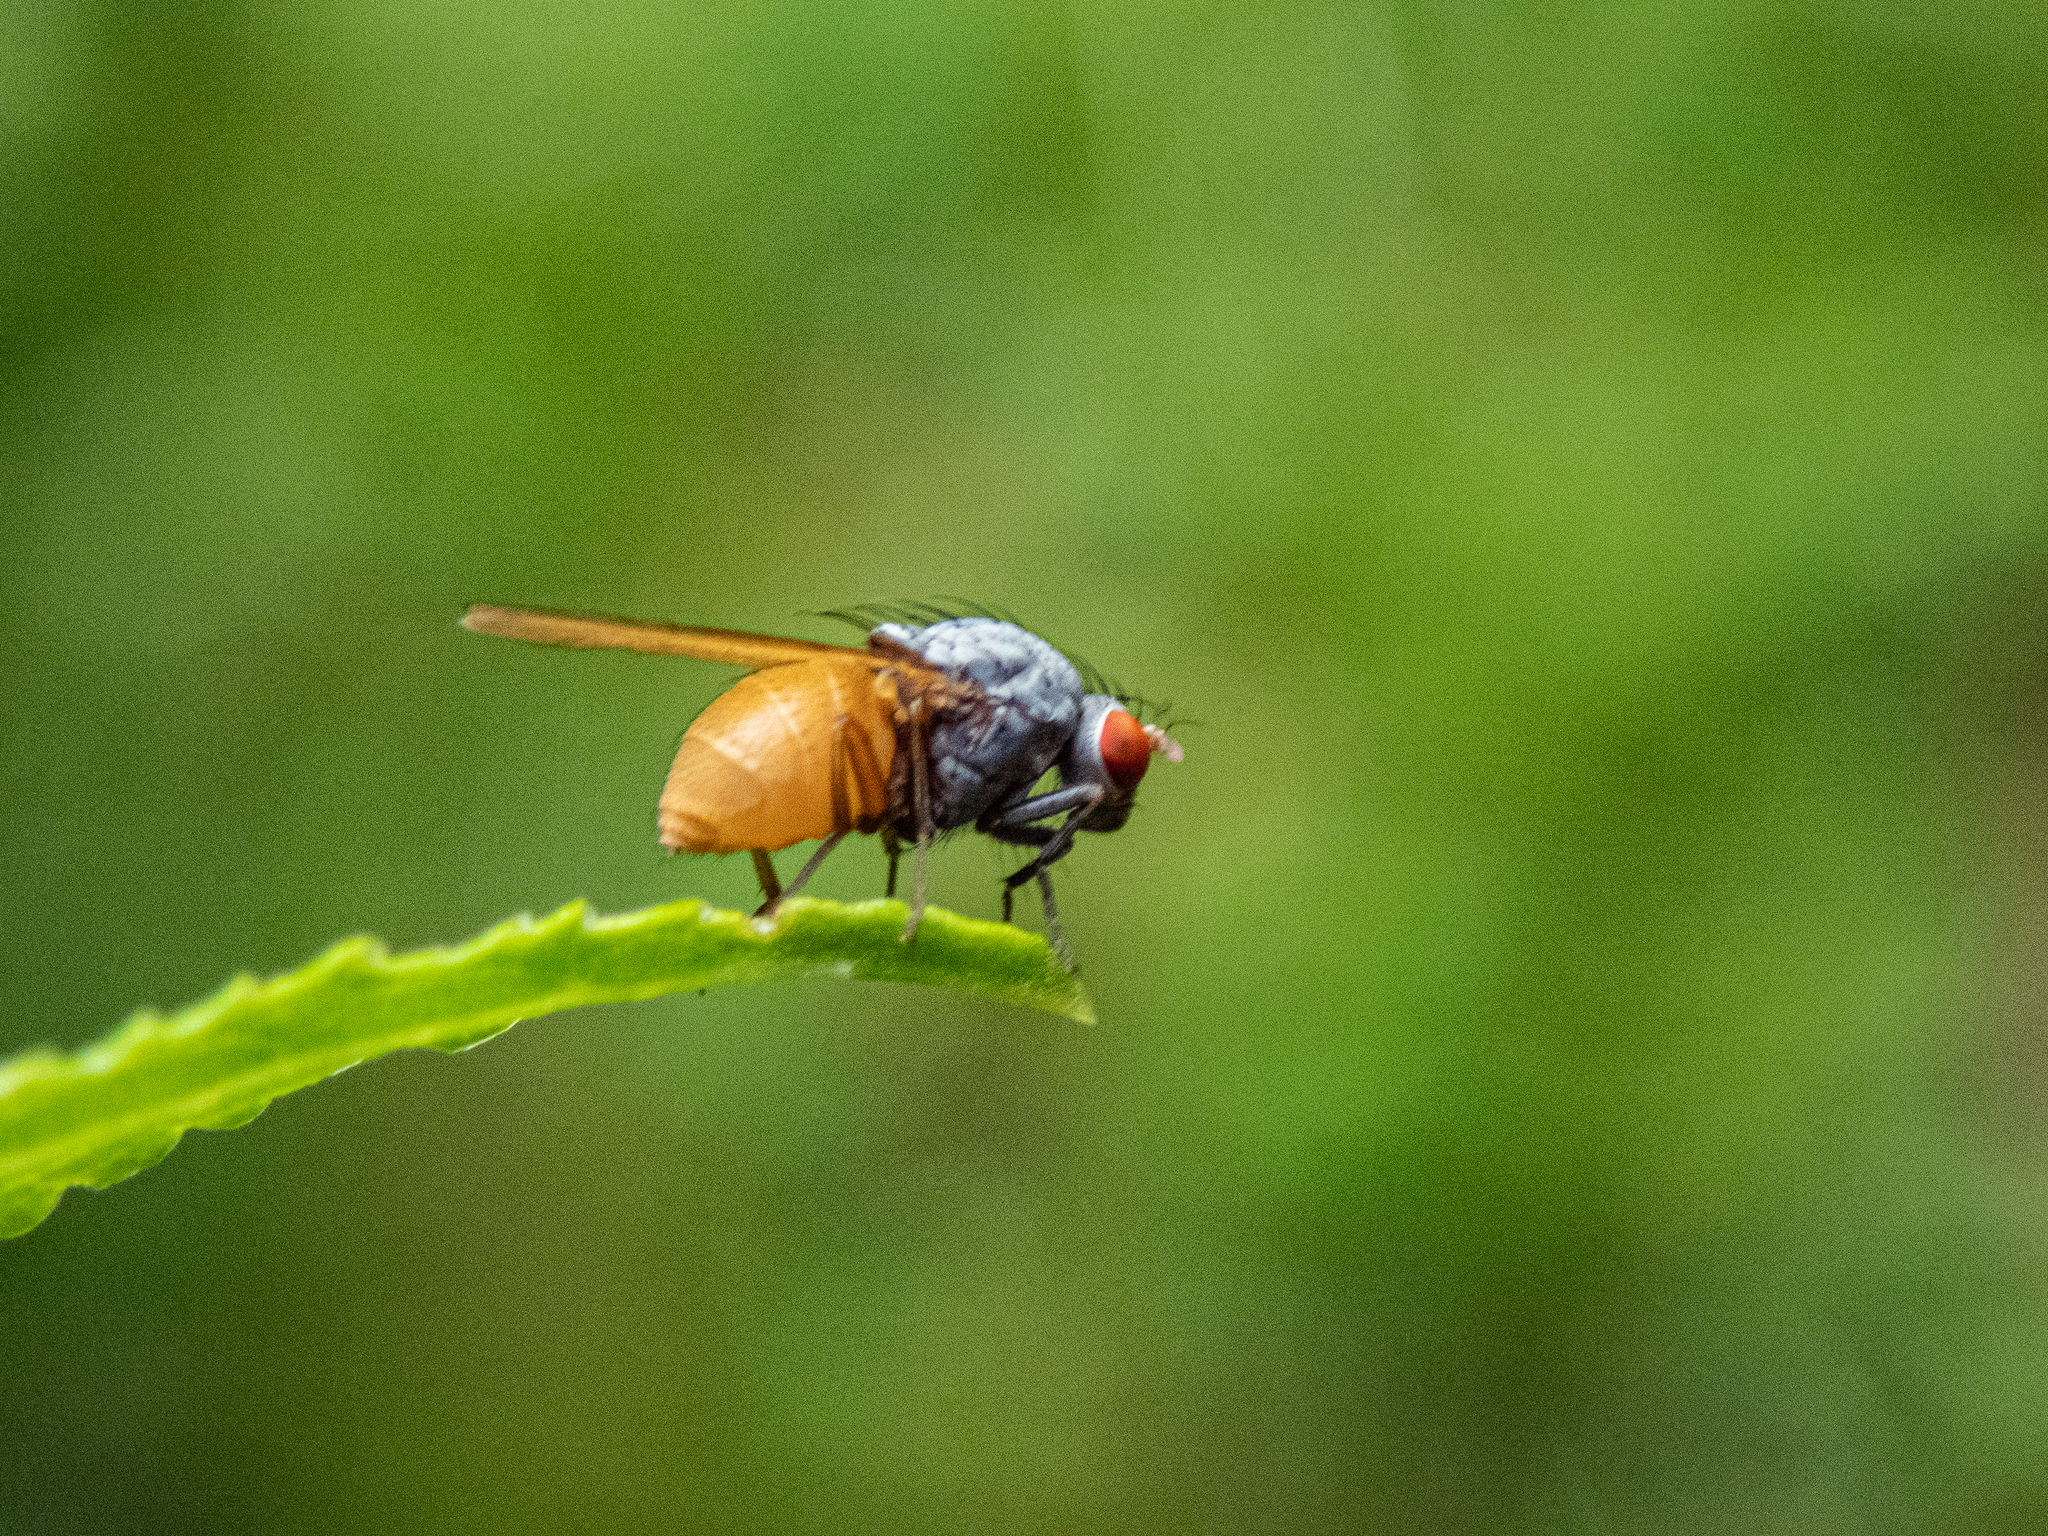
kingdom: Animalia
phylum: Arthropoda
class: Insecta
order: Diptera
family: Lauxaniidae
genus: Minettia
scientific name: Minettia lupulina
